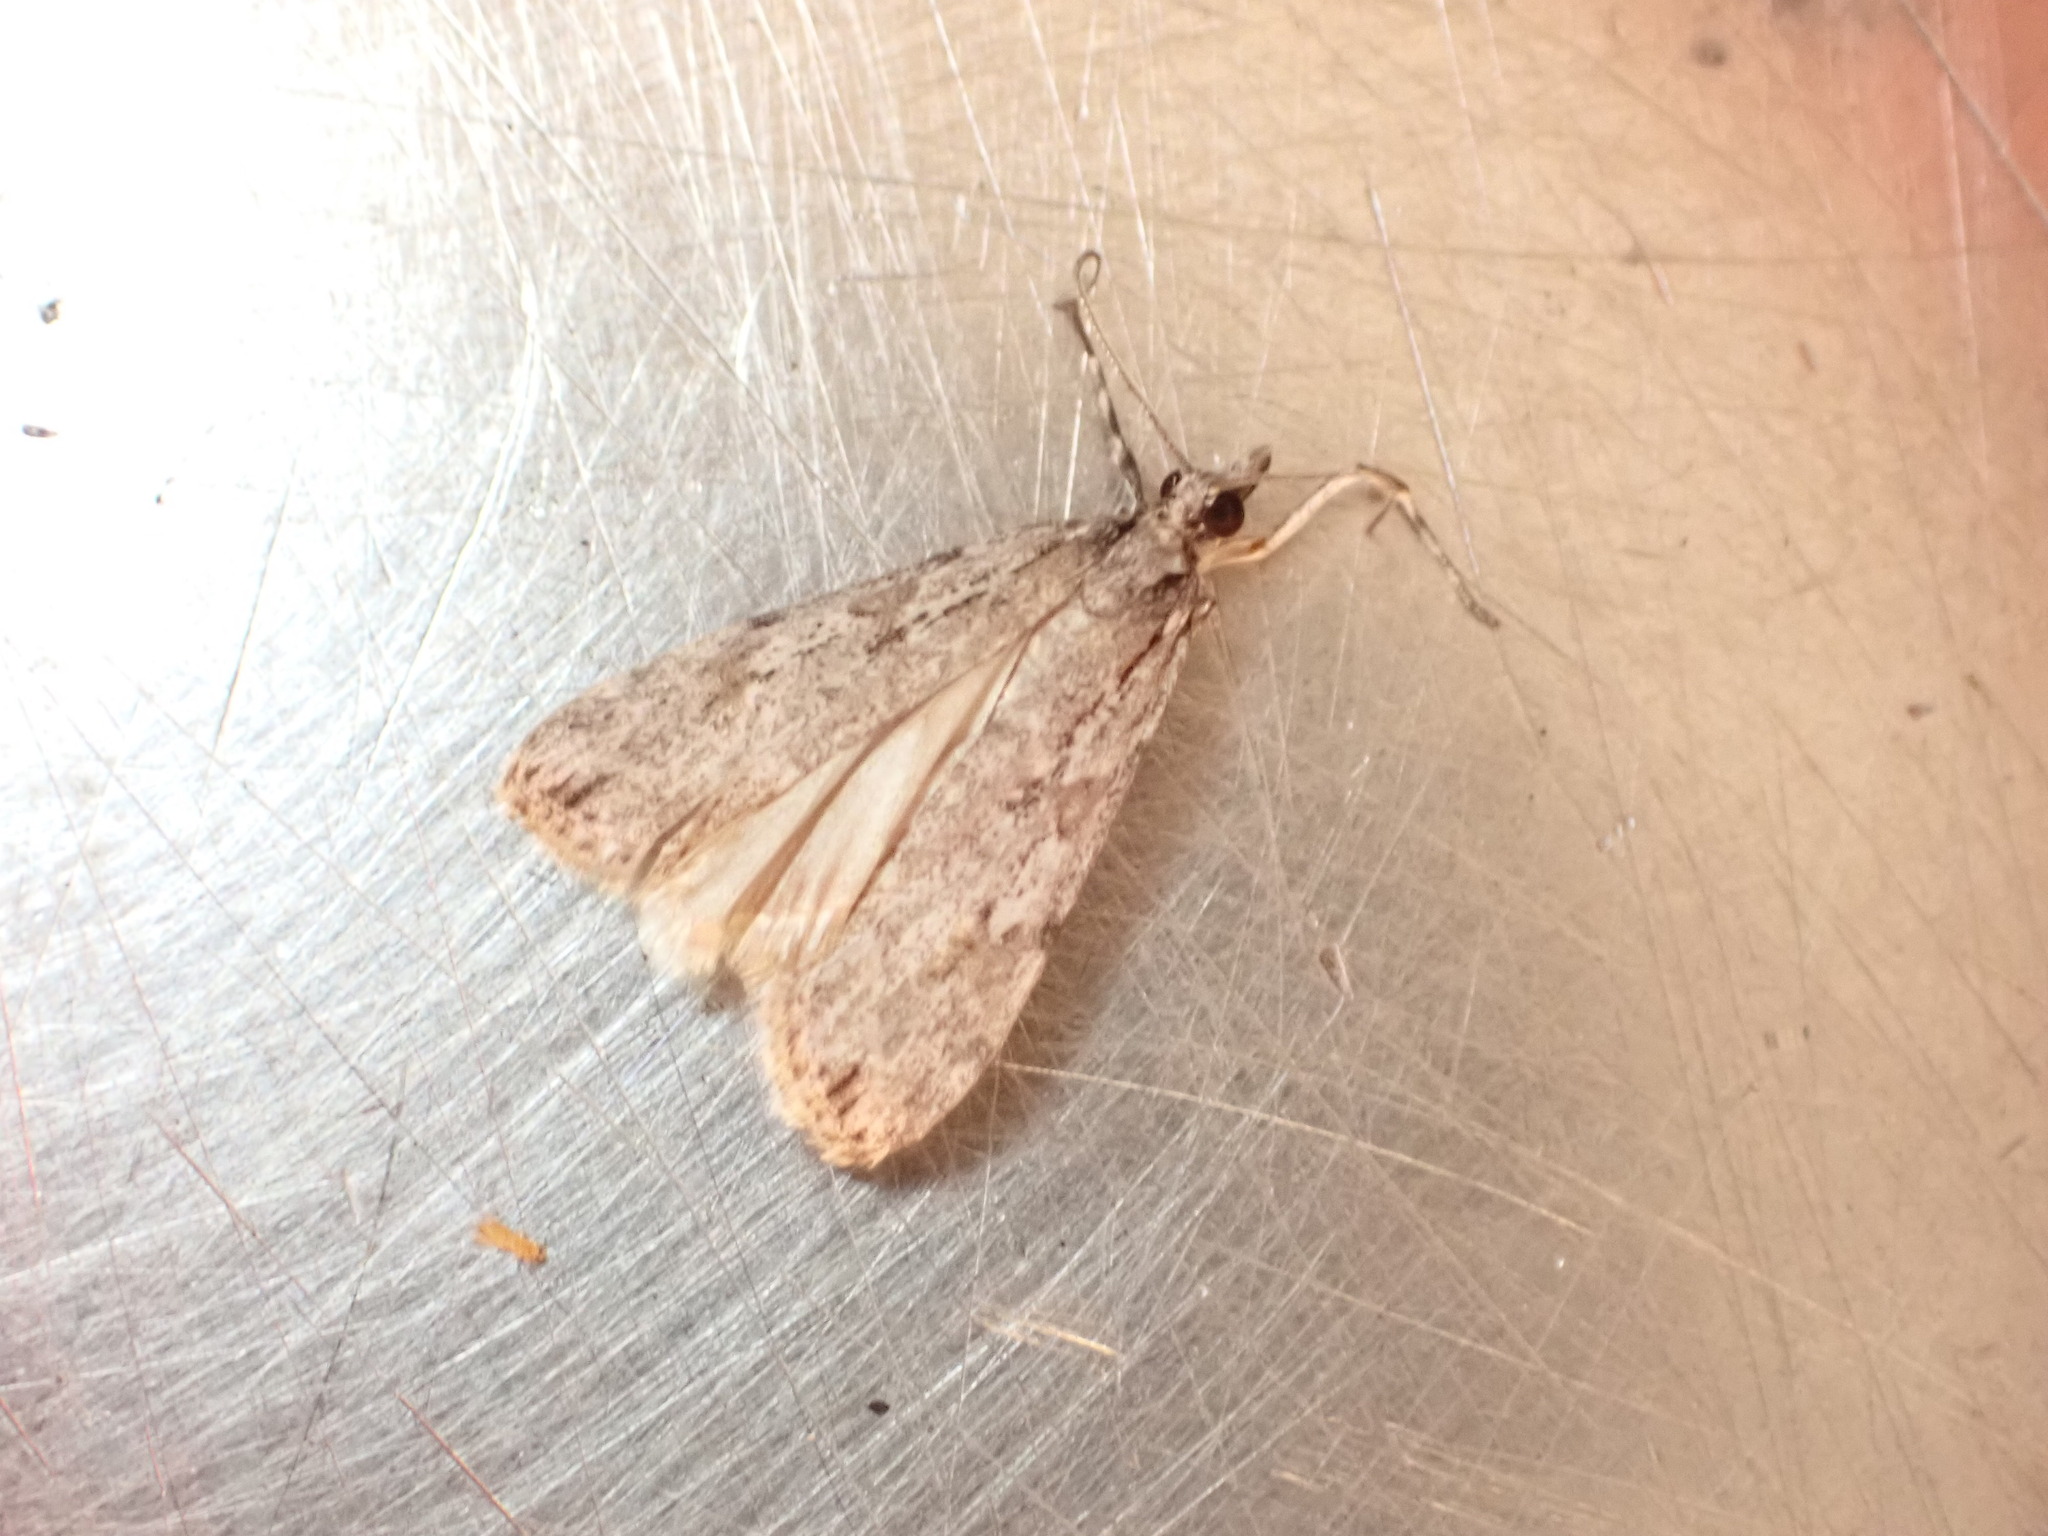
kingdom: Animalia
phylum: Arthropoda
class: Insecta
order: Lepidoptera
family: Crambidae
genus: Scoparia
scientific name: Scoparia chalicodes
